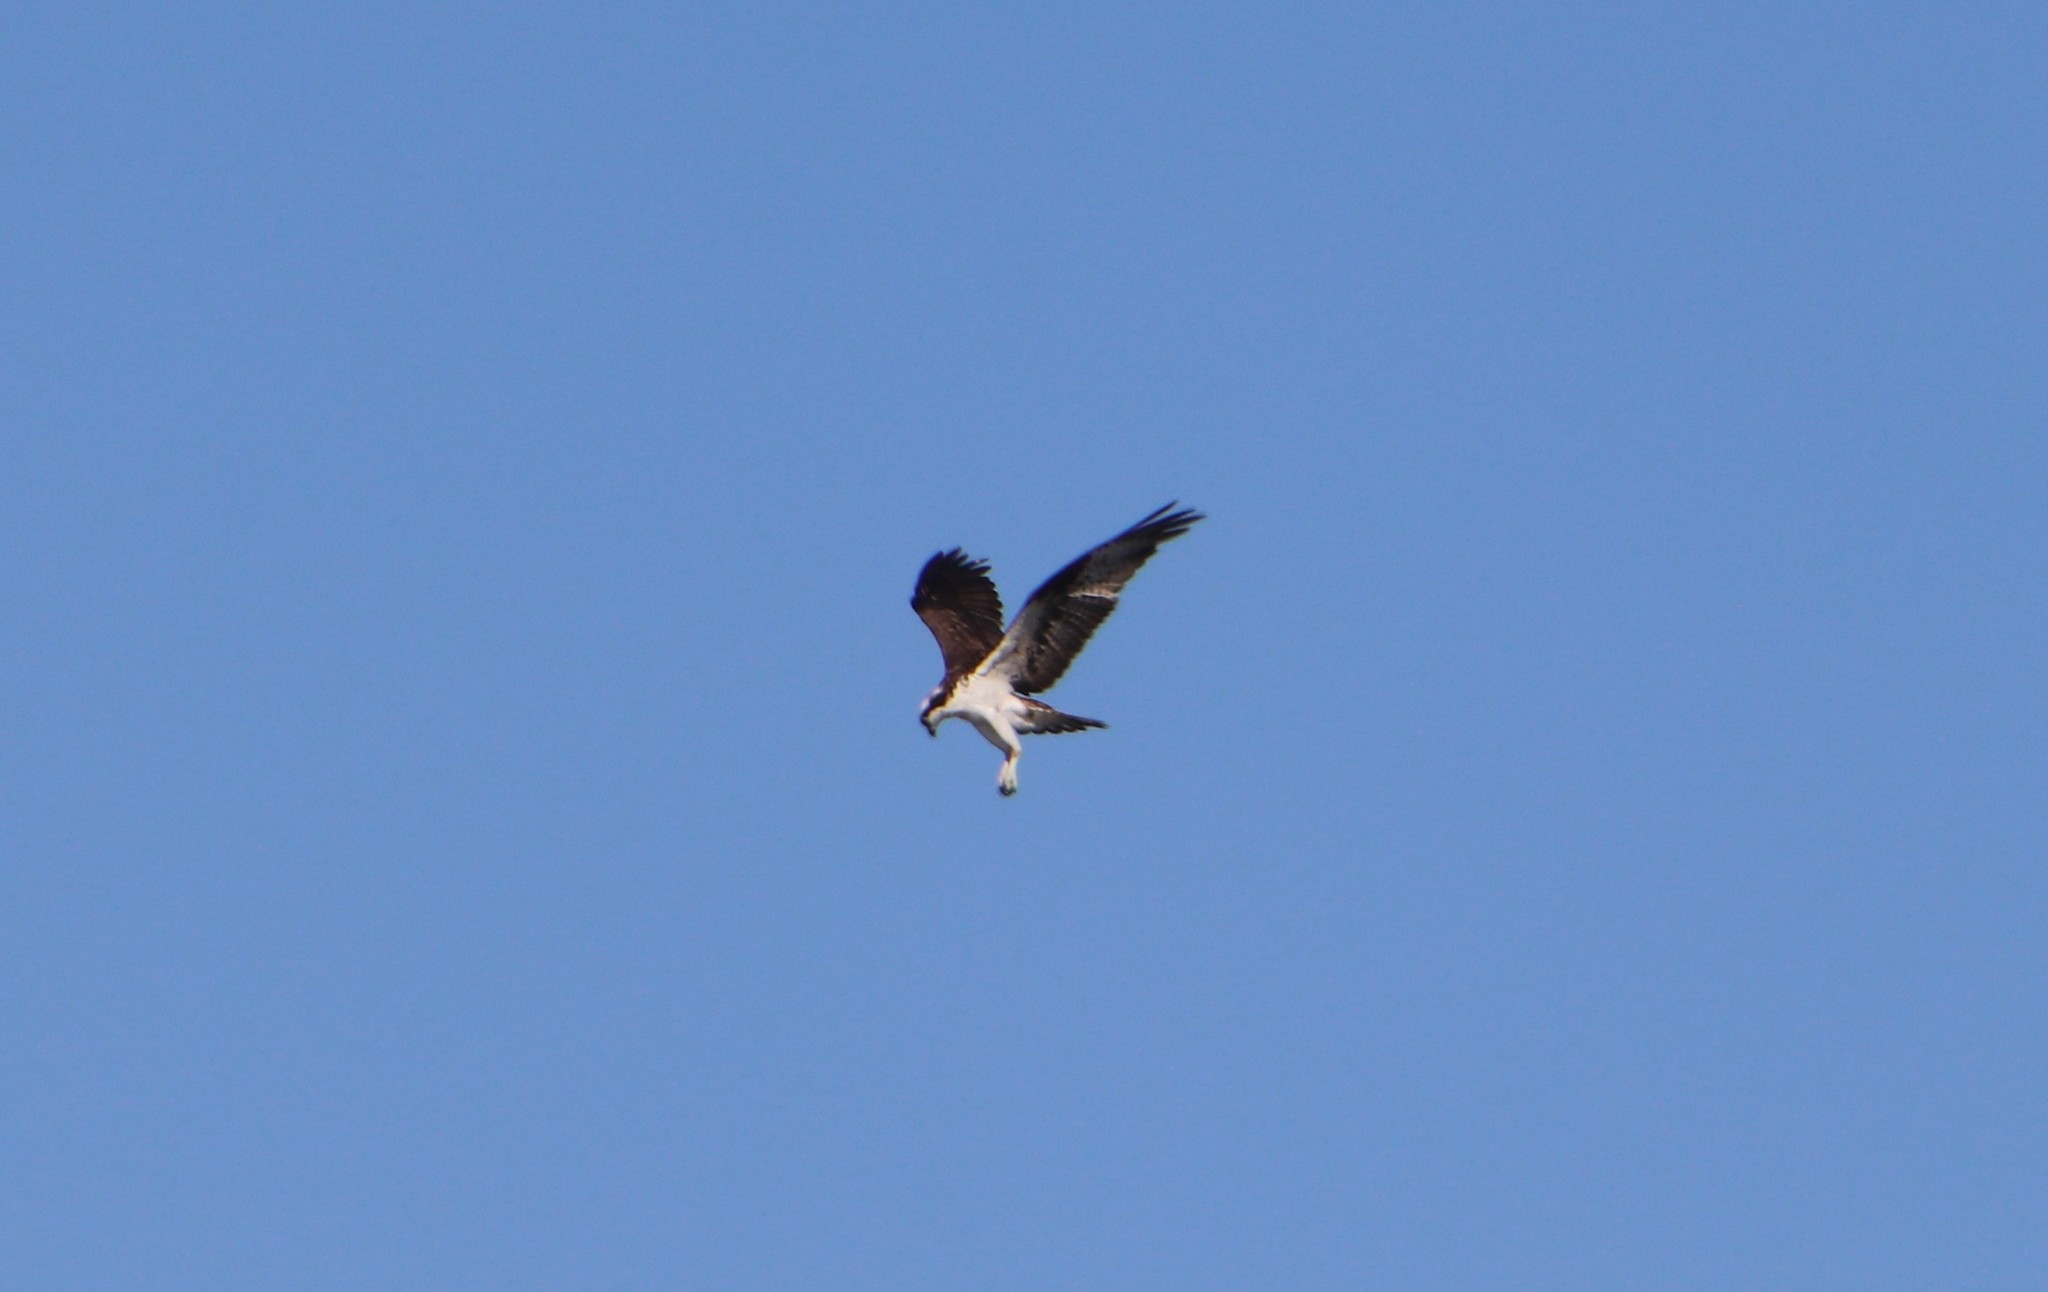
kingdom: Animalia
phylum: Chordata
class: Aves
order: Accipitriformes
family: Pandionidae
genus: Pandion
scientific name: Pandion haliaetus
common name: Osprey
